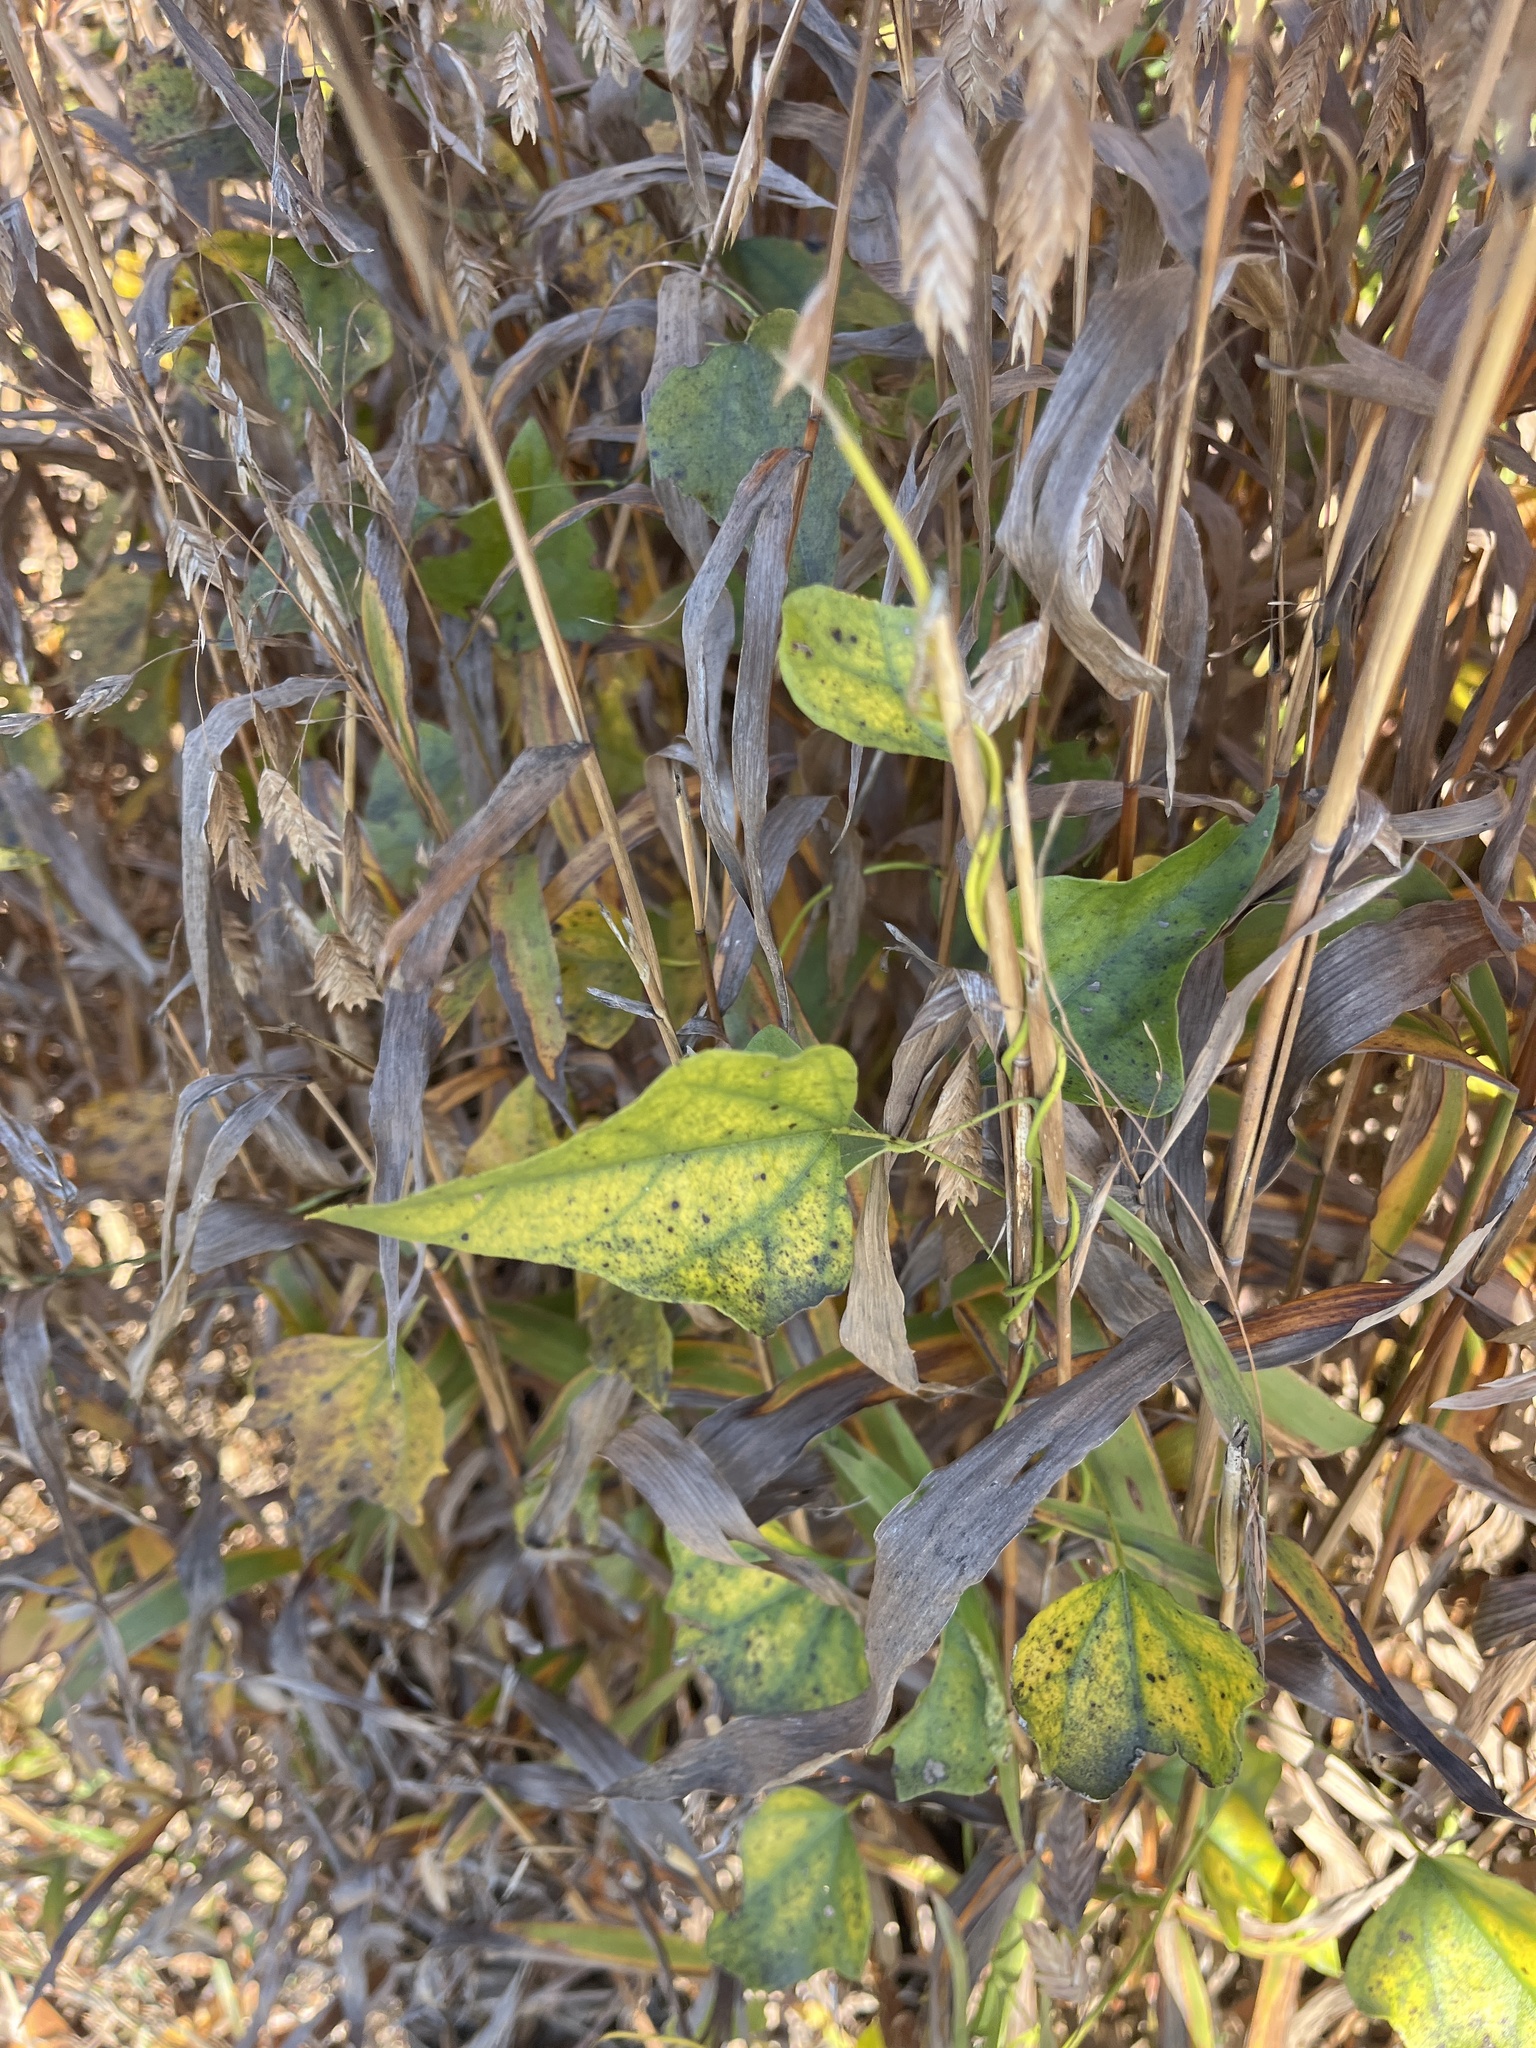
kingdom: Plantae
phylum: Tracheophyta
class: Magnoliopsida
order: Ranunculales
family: Menispermaceae
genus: Cocculus
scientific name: Cocculus carolinus
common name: Carolina moonseed
